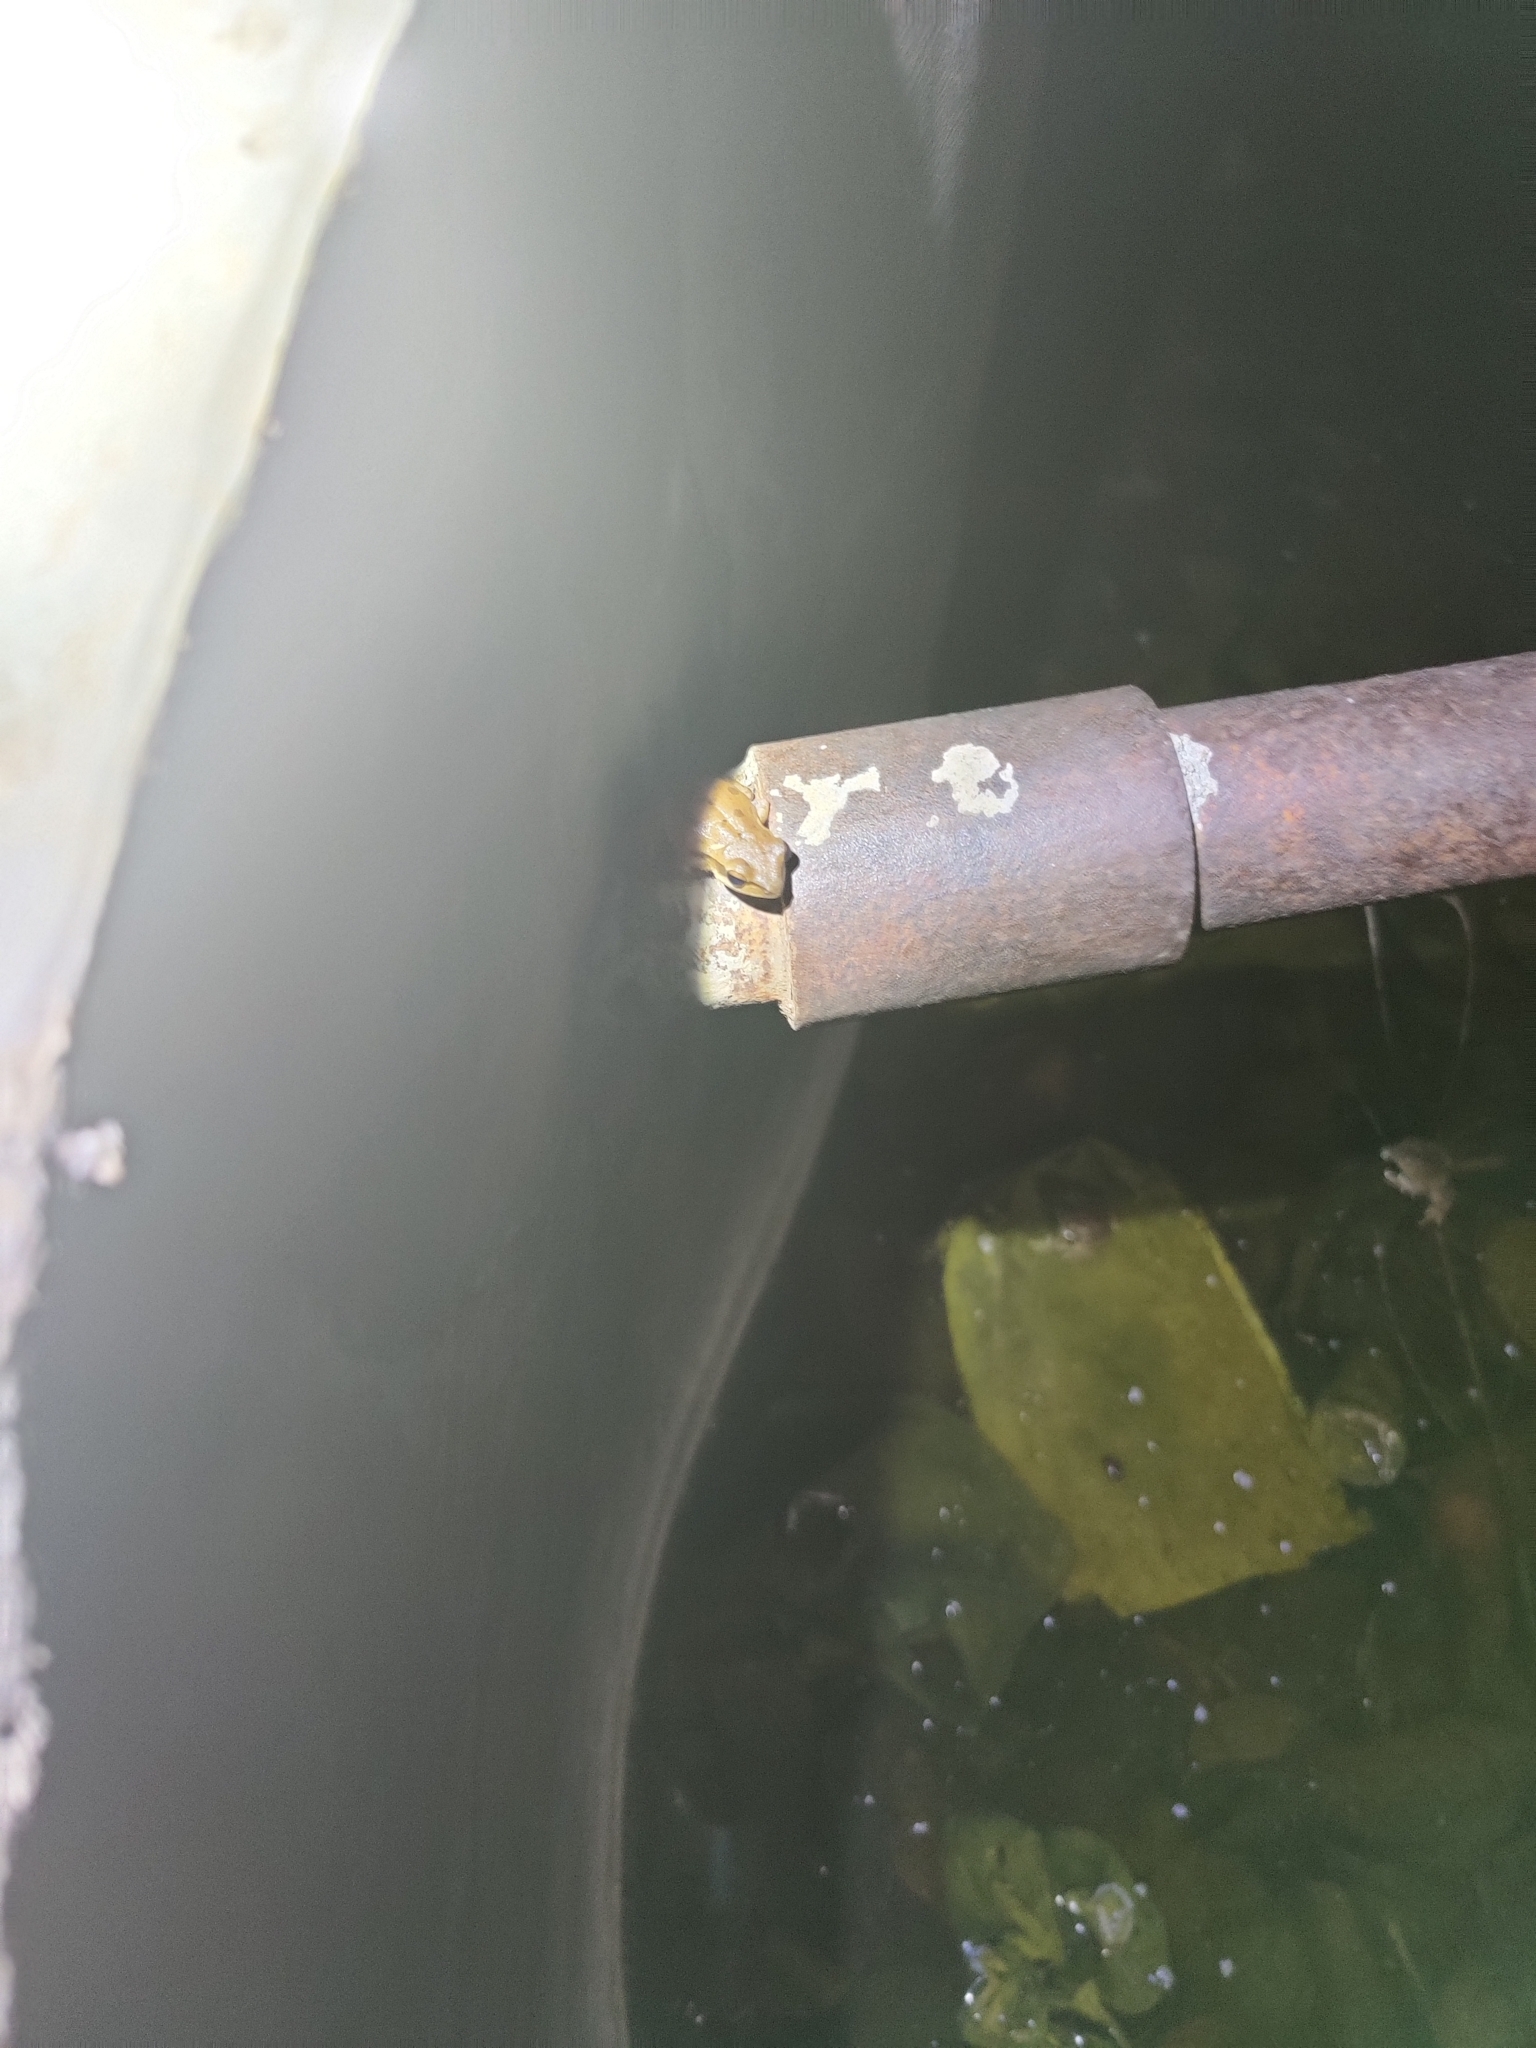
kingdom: Animalia
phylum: Chordata
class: Amphibia
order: Anura
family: Rhacophoridae
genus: Polypedates
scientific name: Polypedates maculatus
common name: Himalayan tree frog
